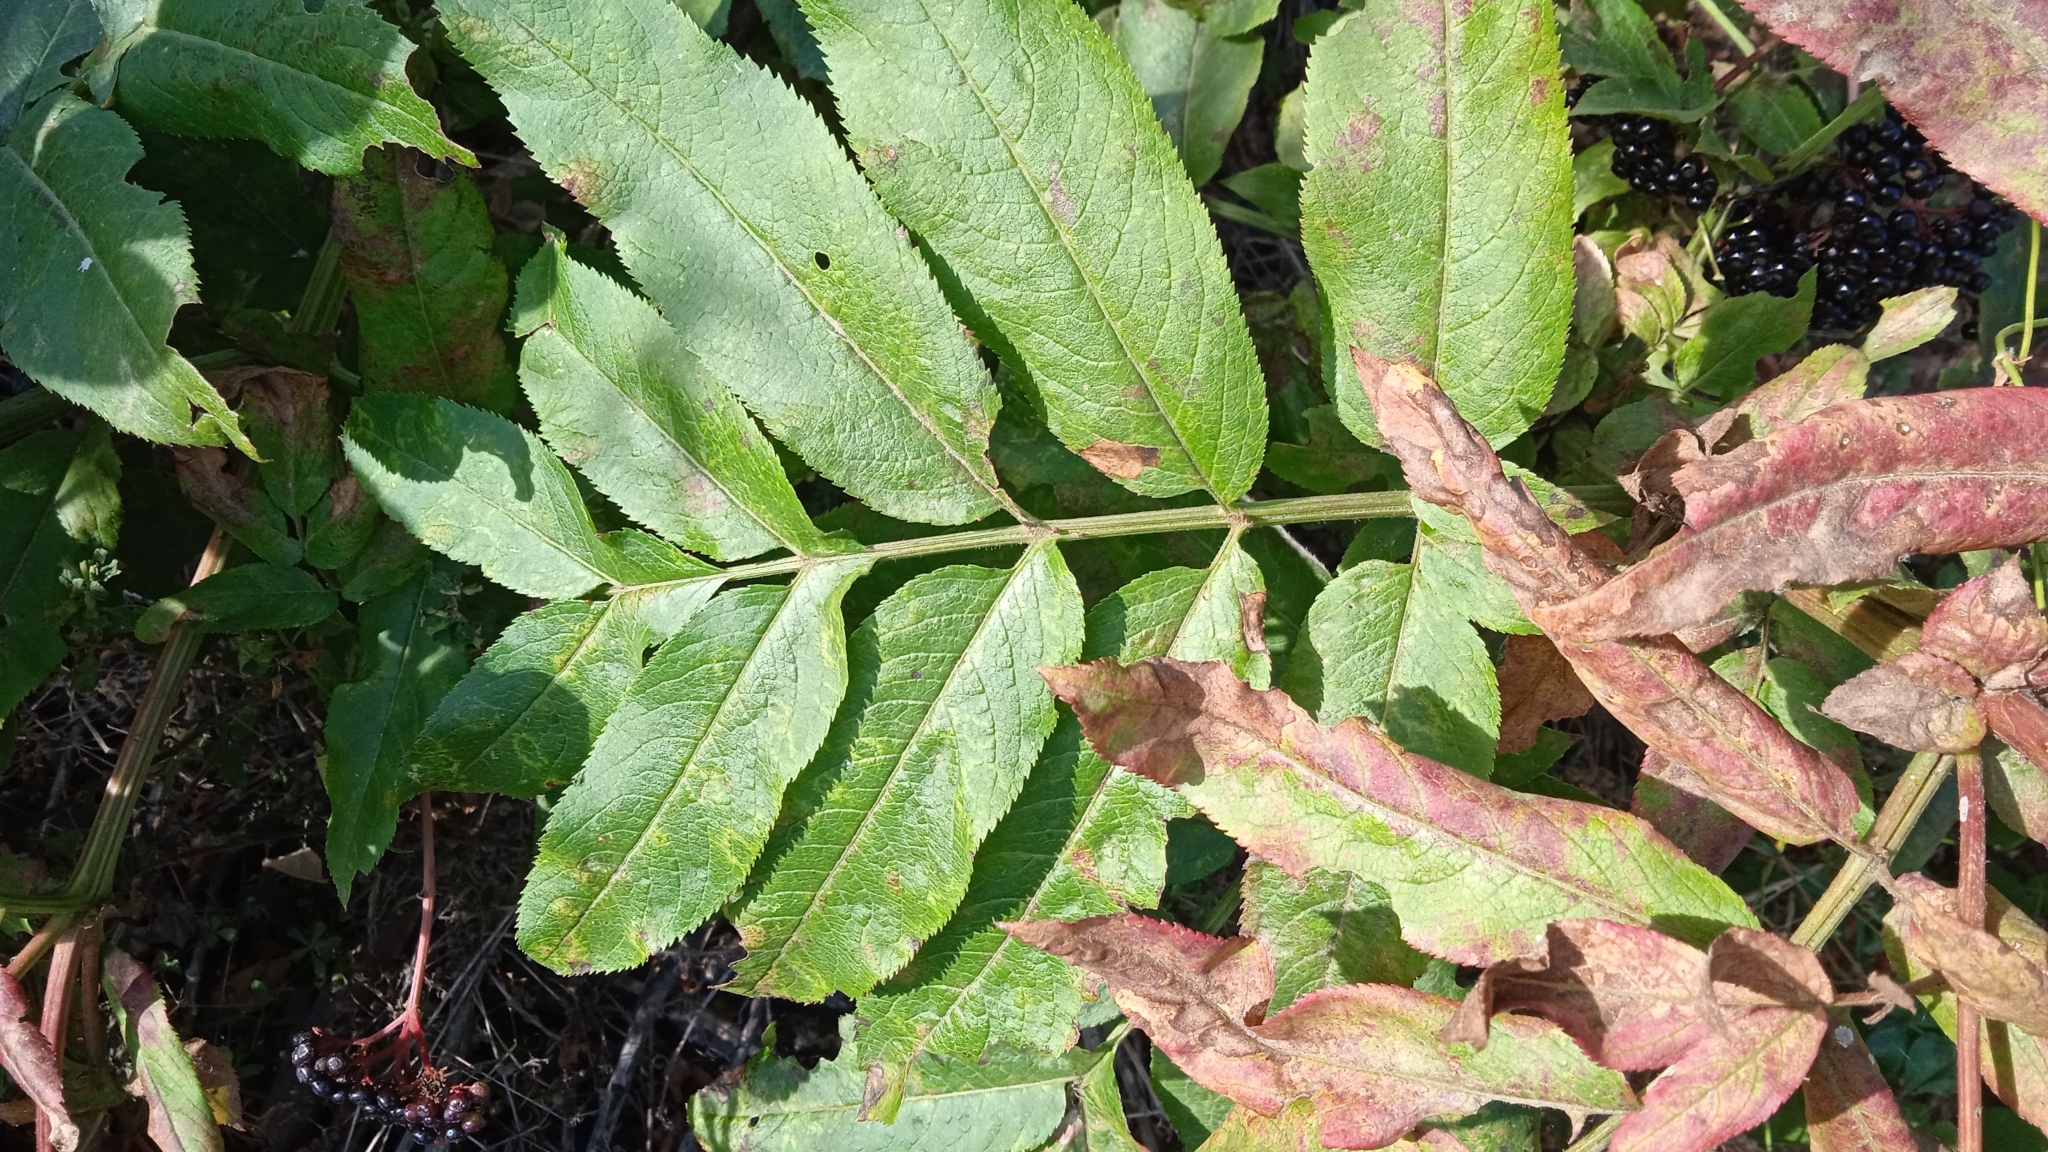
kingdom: Plantae
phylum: Tracheophyta
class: Magnoliopsida
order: Dipsacales
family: Viburnaceae
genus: Sambucus
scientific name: Sambucus ebulus
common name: Dwarf elder
